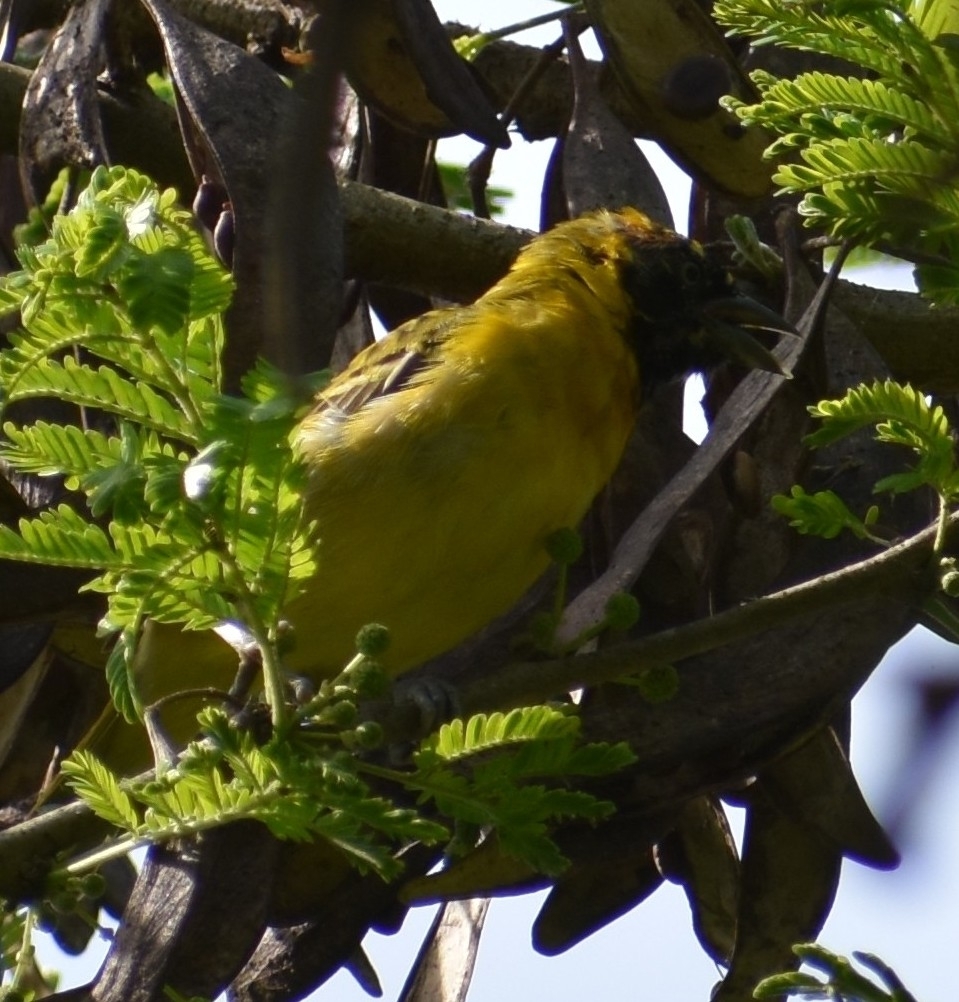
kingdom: Animalia
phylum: Chordata
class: Aves
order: Passeriformes
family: Ploceidae
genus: Ploceus
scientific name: Ploceus intermedius
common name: Lesser masked weaver
